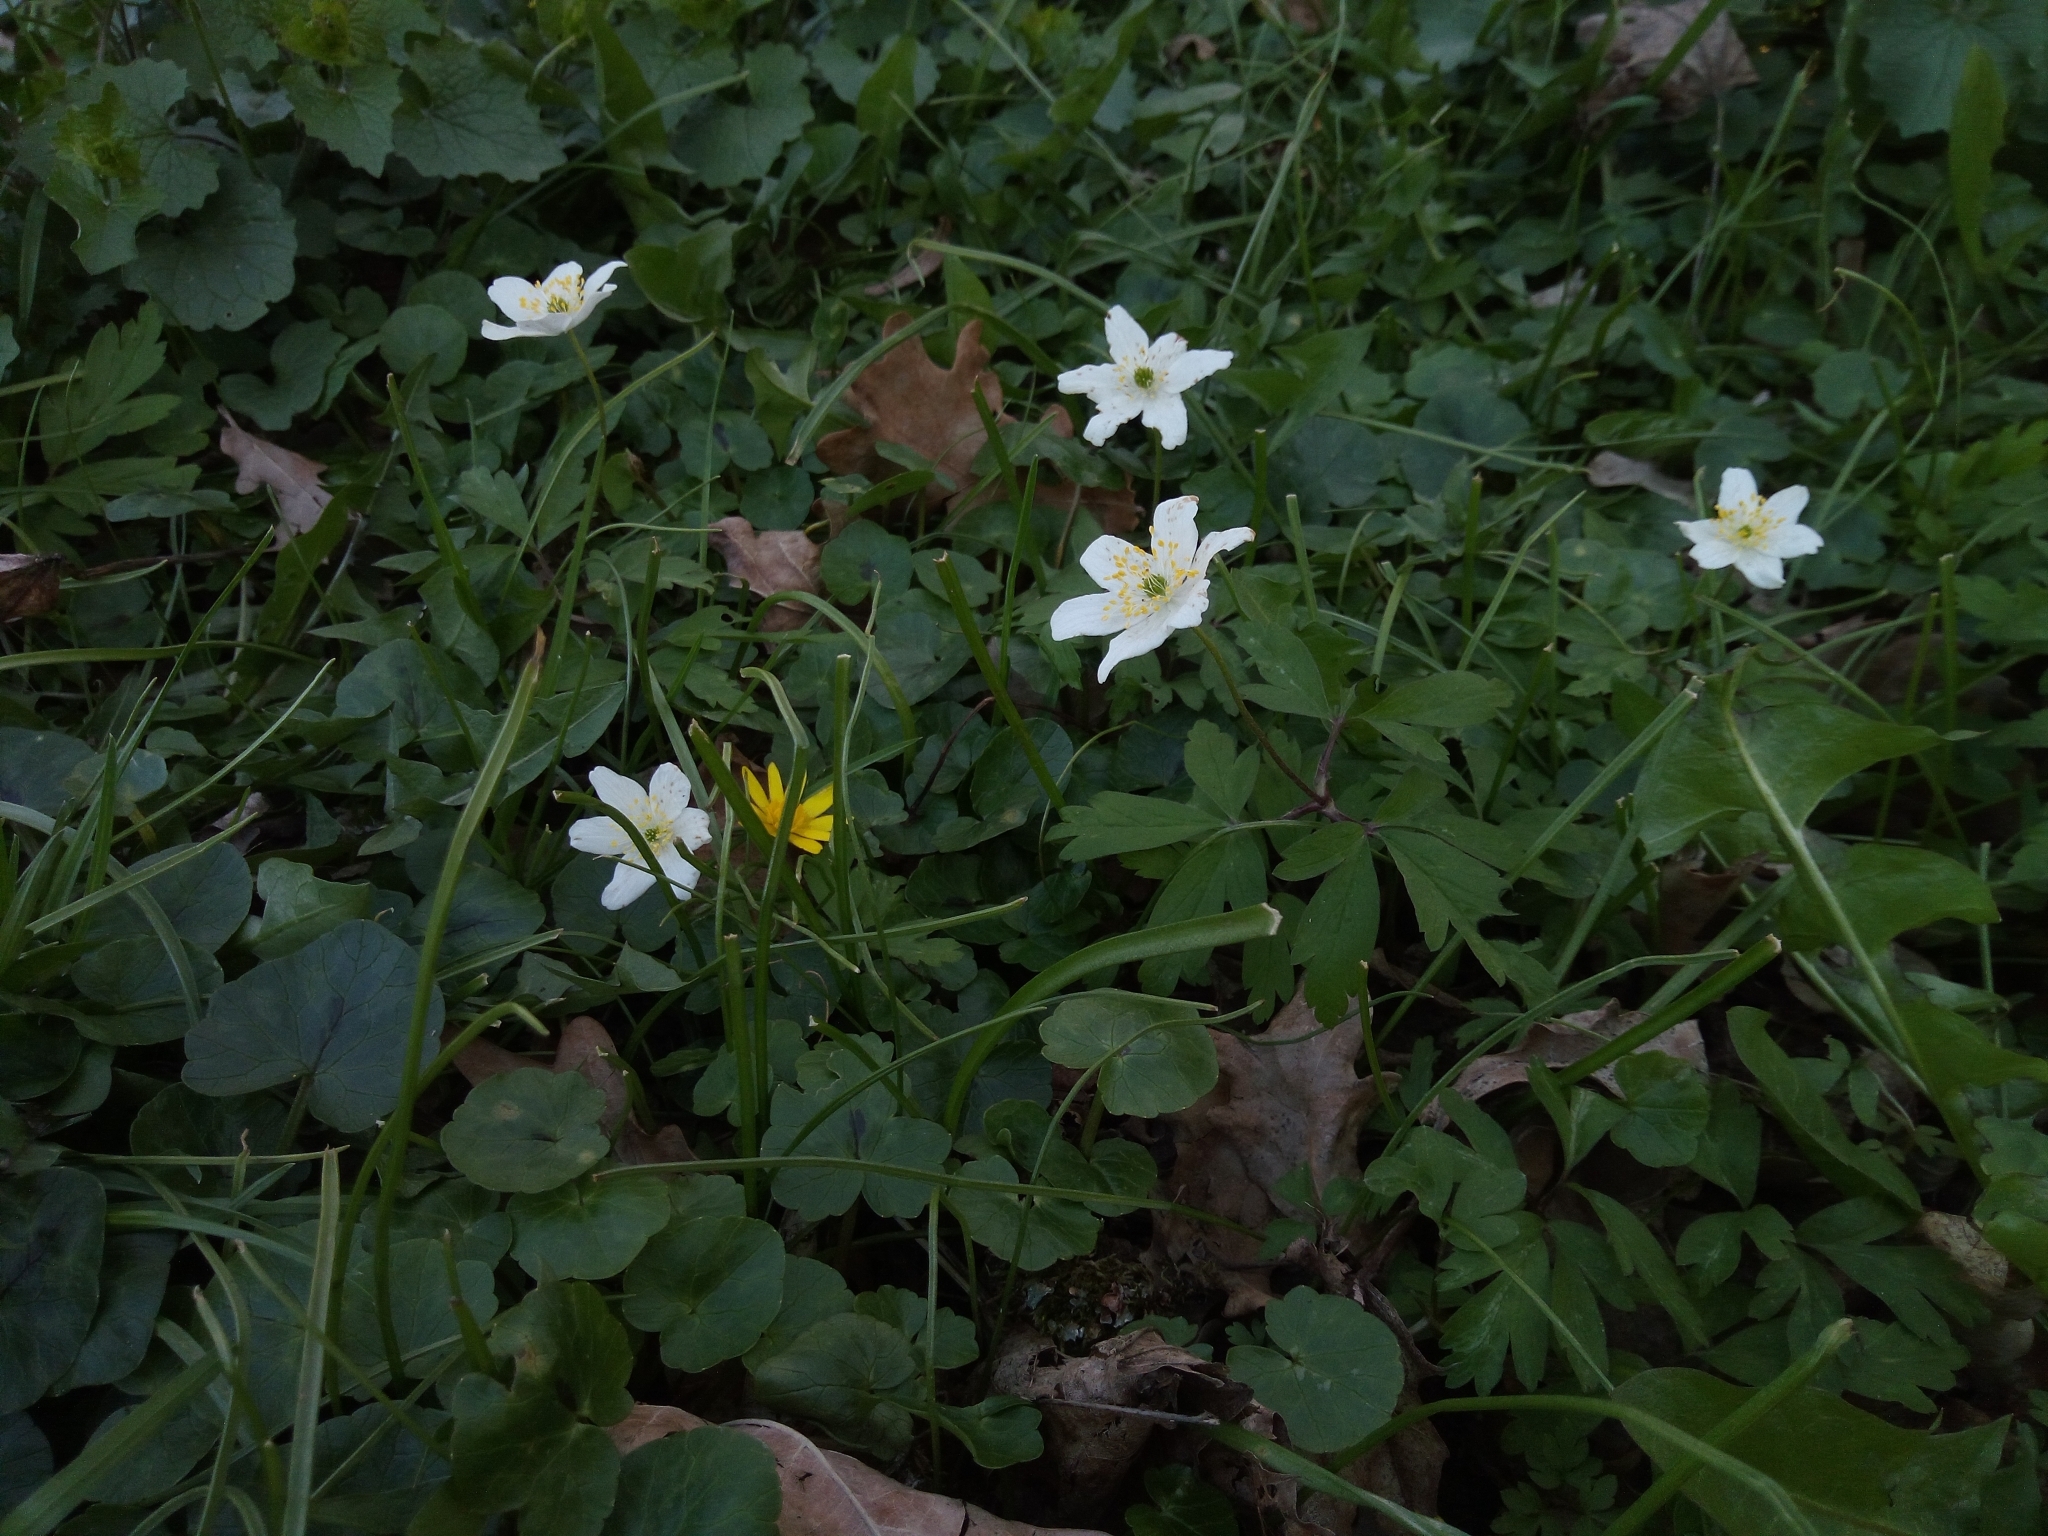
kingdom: Plantae
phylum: Tracheophyta
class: Magnoliopsida
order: Ranunculales
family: Ranunculaceae
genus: Anemone
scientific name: Anemone nemorosa
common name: Wood anemone
